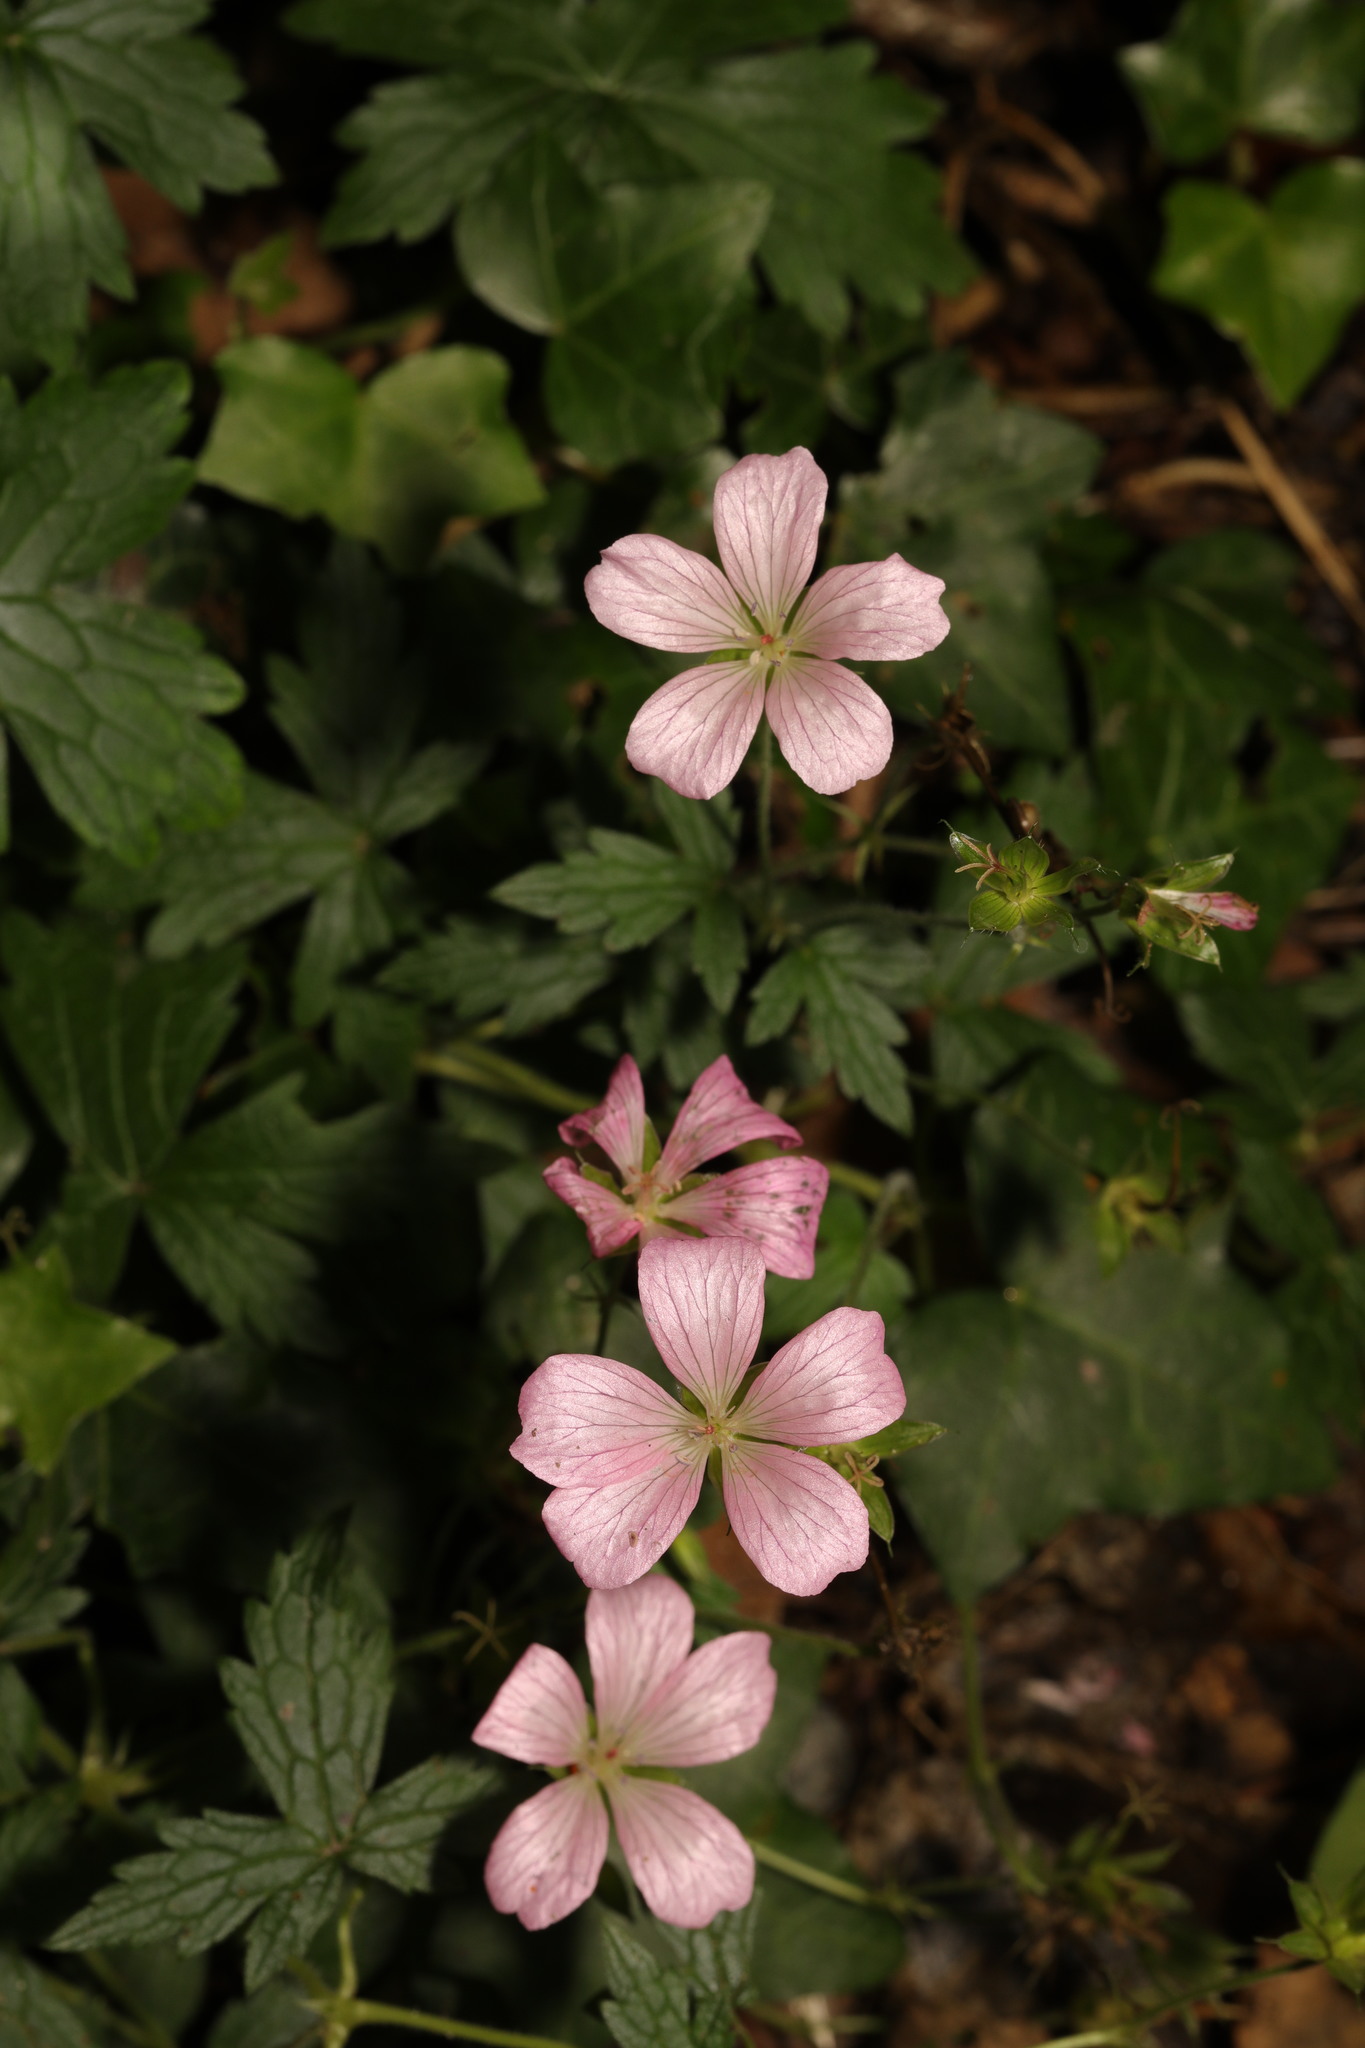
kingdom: Plantae
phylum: Tracheophyta
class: Magnoliopsida
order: Geraniales
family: Geraniaceae
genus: Geranium
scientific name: Geranium oxonianum
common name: Druce's crane's-bill
